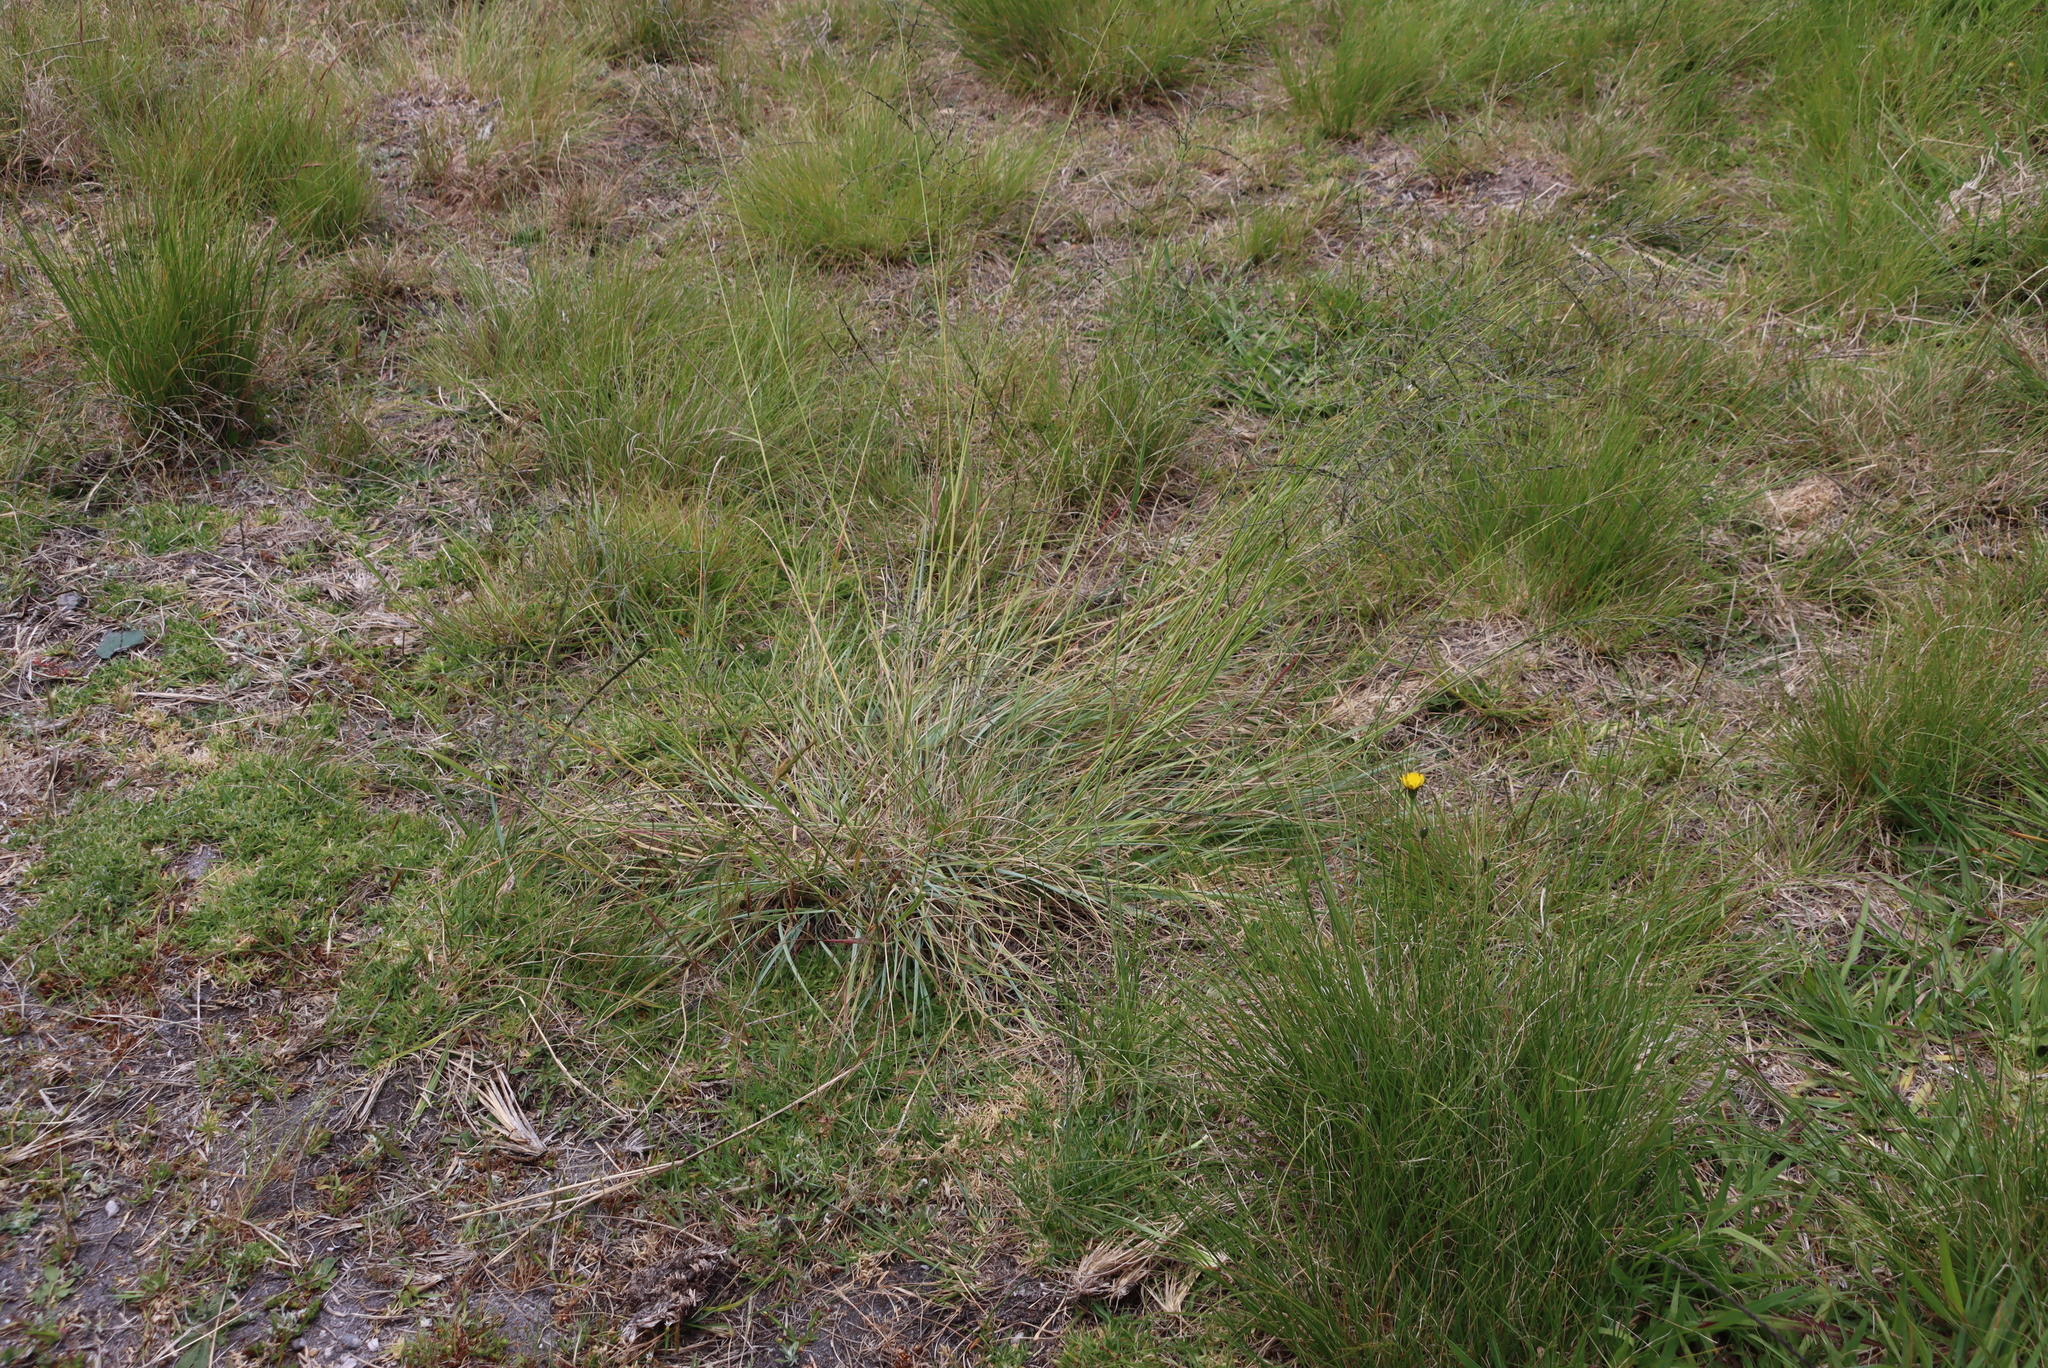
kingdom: Plantae
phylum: Tracheophyta
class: Liliopsida
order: Poales
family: Poaceae
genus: Eragrostis
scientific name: Eragrostis curvula
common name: African love-grass
